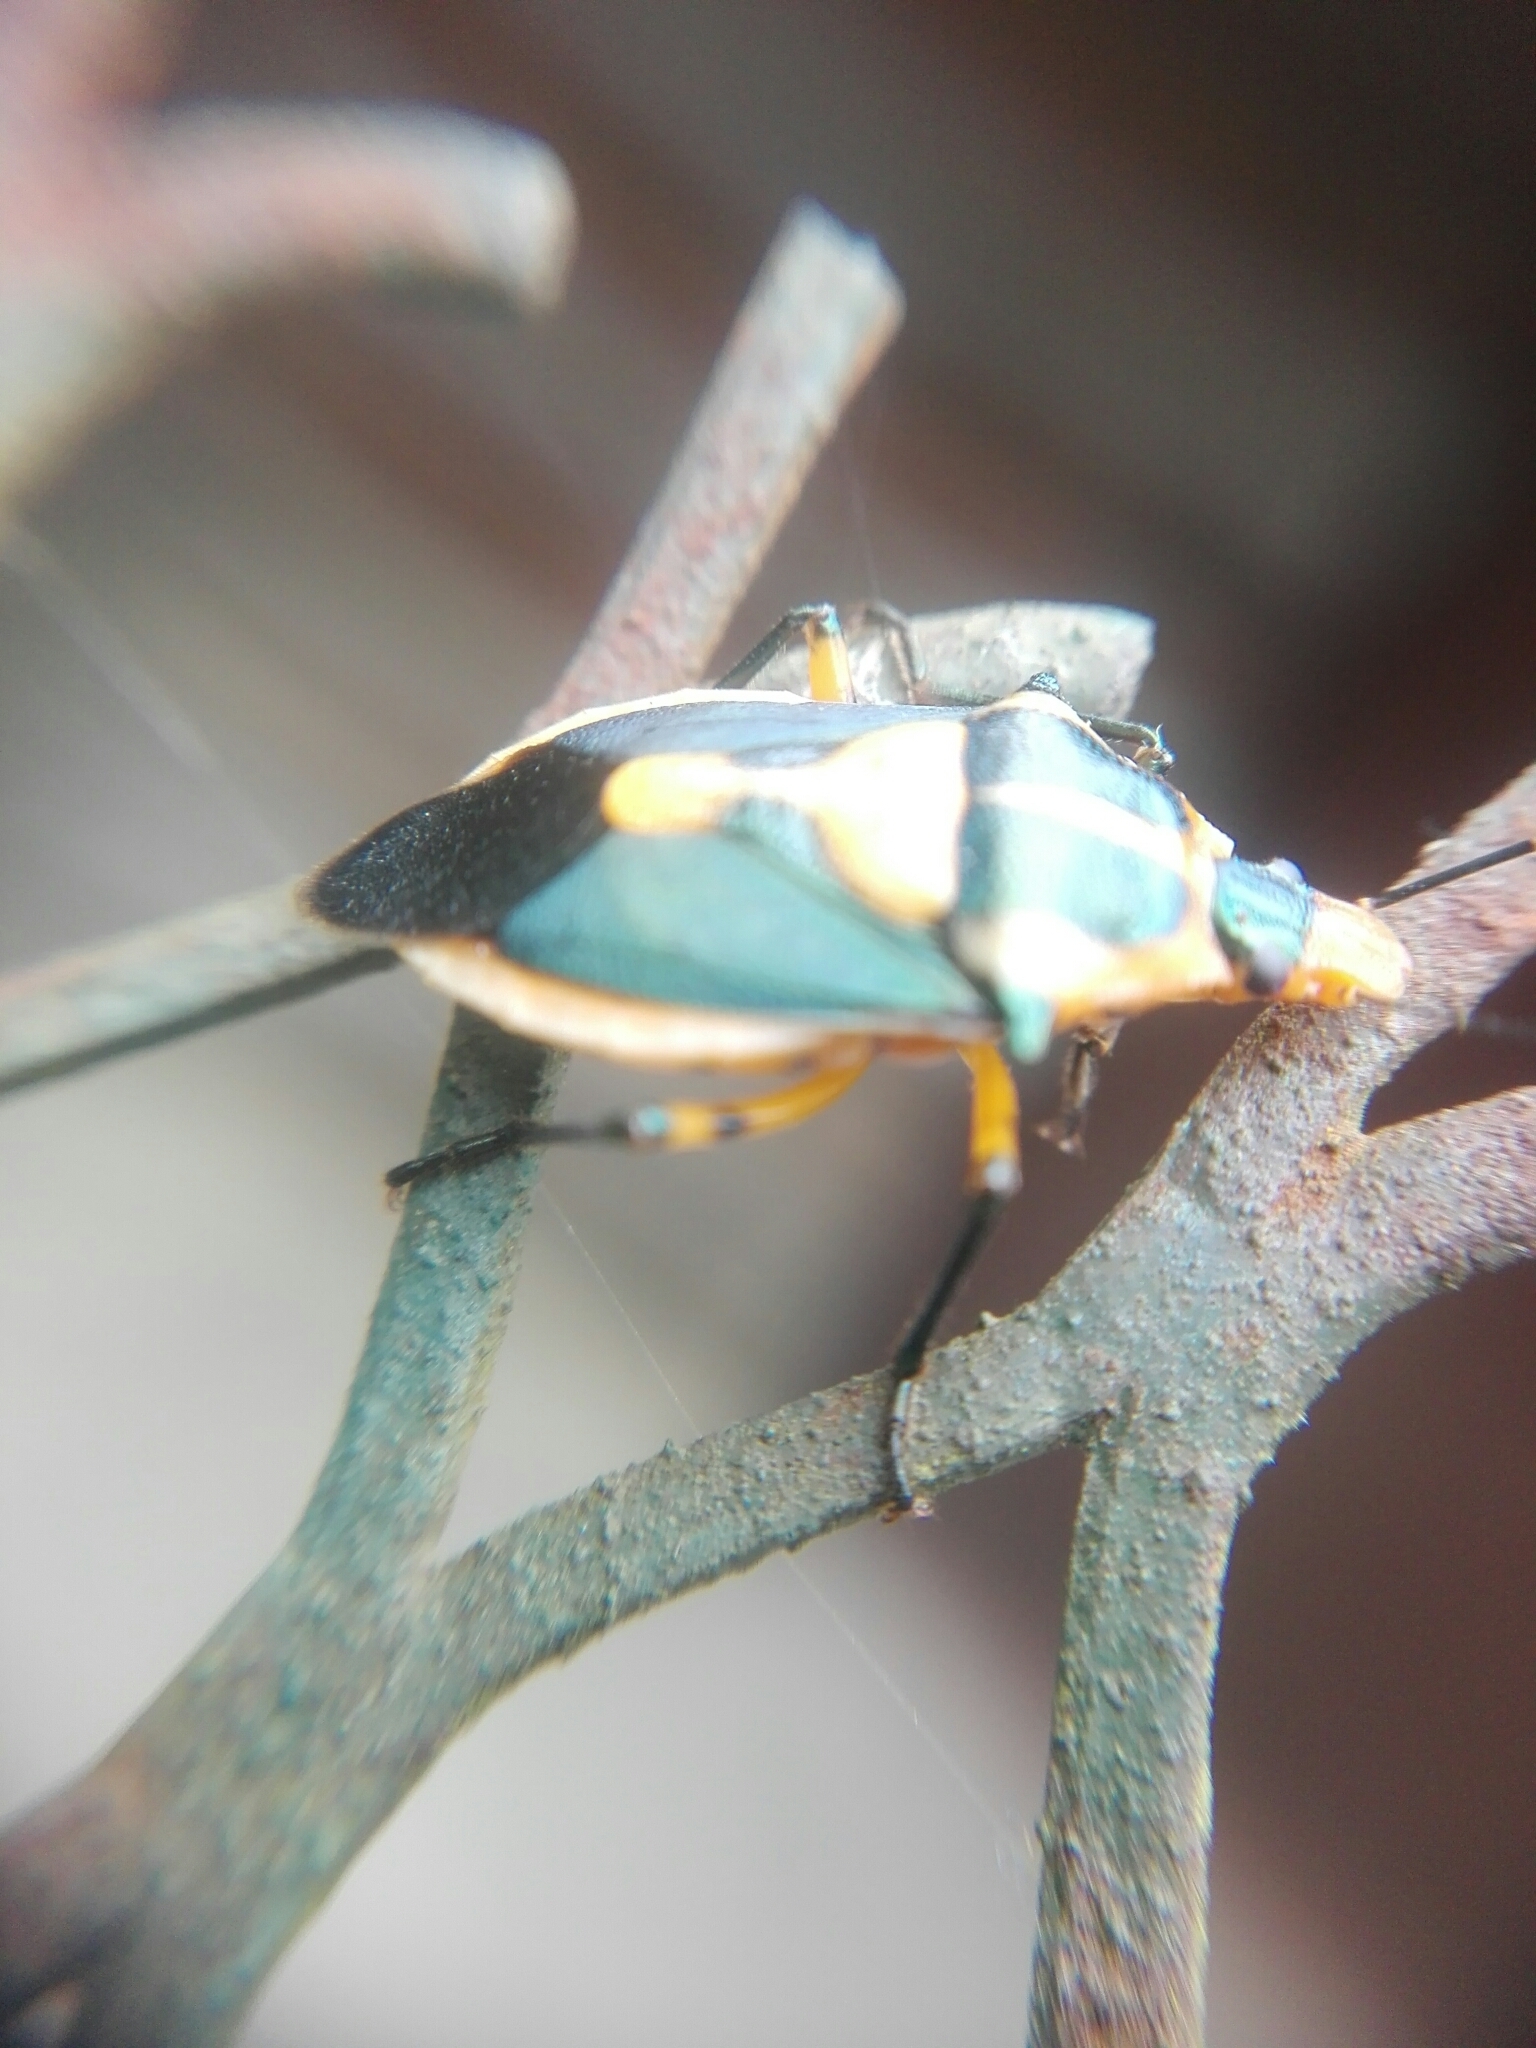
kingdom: Animalia
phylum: Arthropoda
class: Insecta
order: Hemiptera
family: Pentatomidae
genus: Euthyrhynchus
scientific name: Euthyrhynchus floridanus
